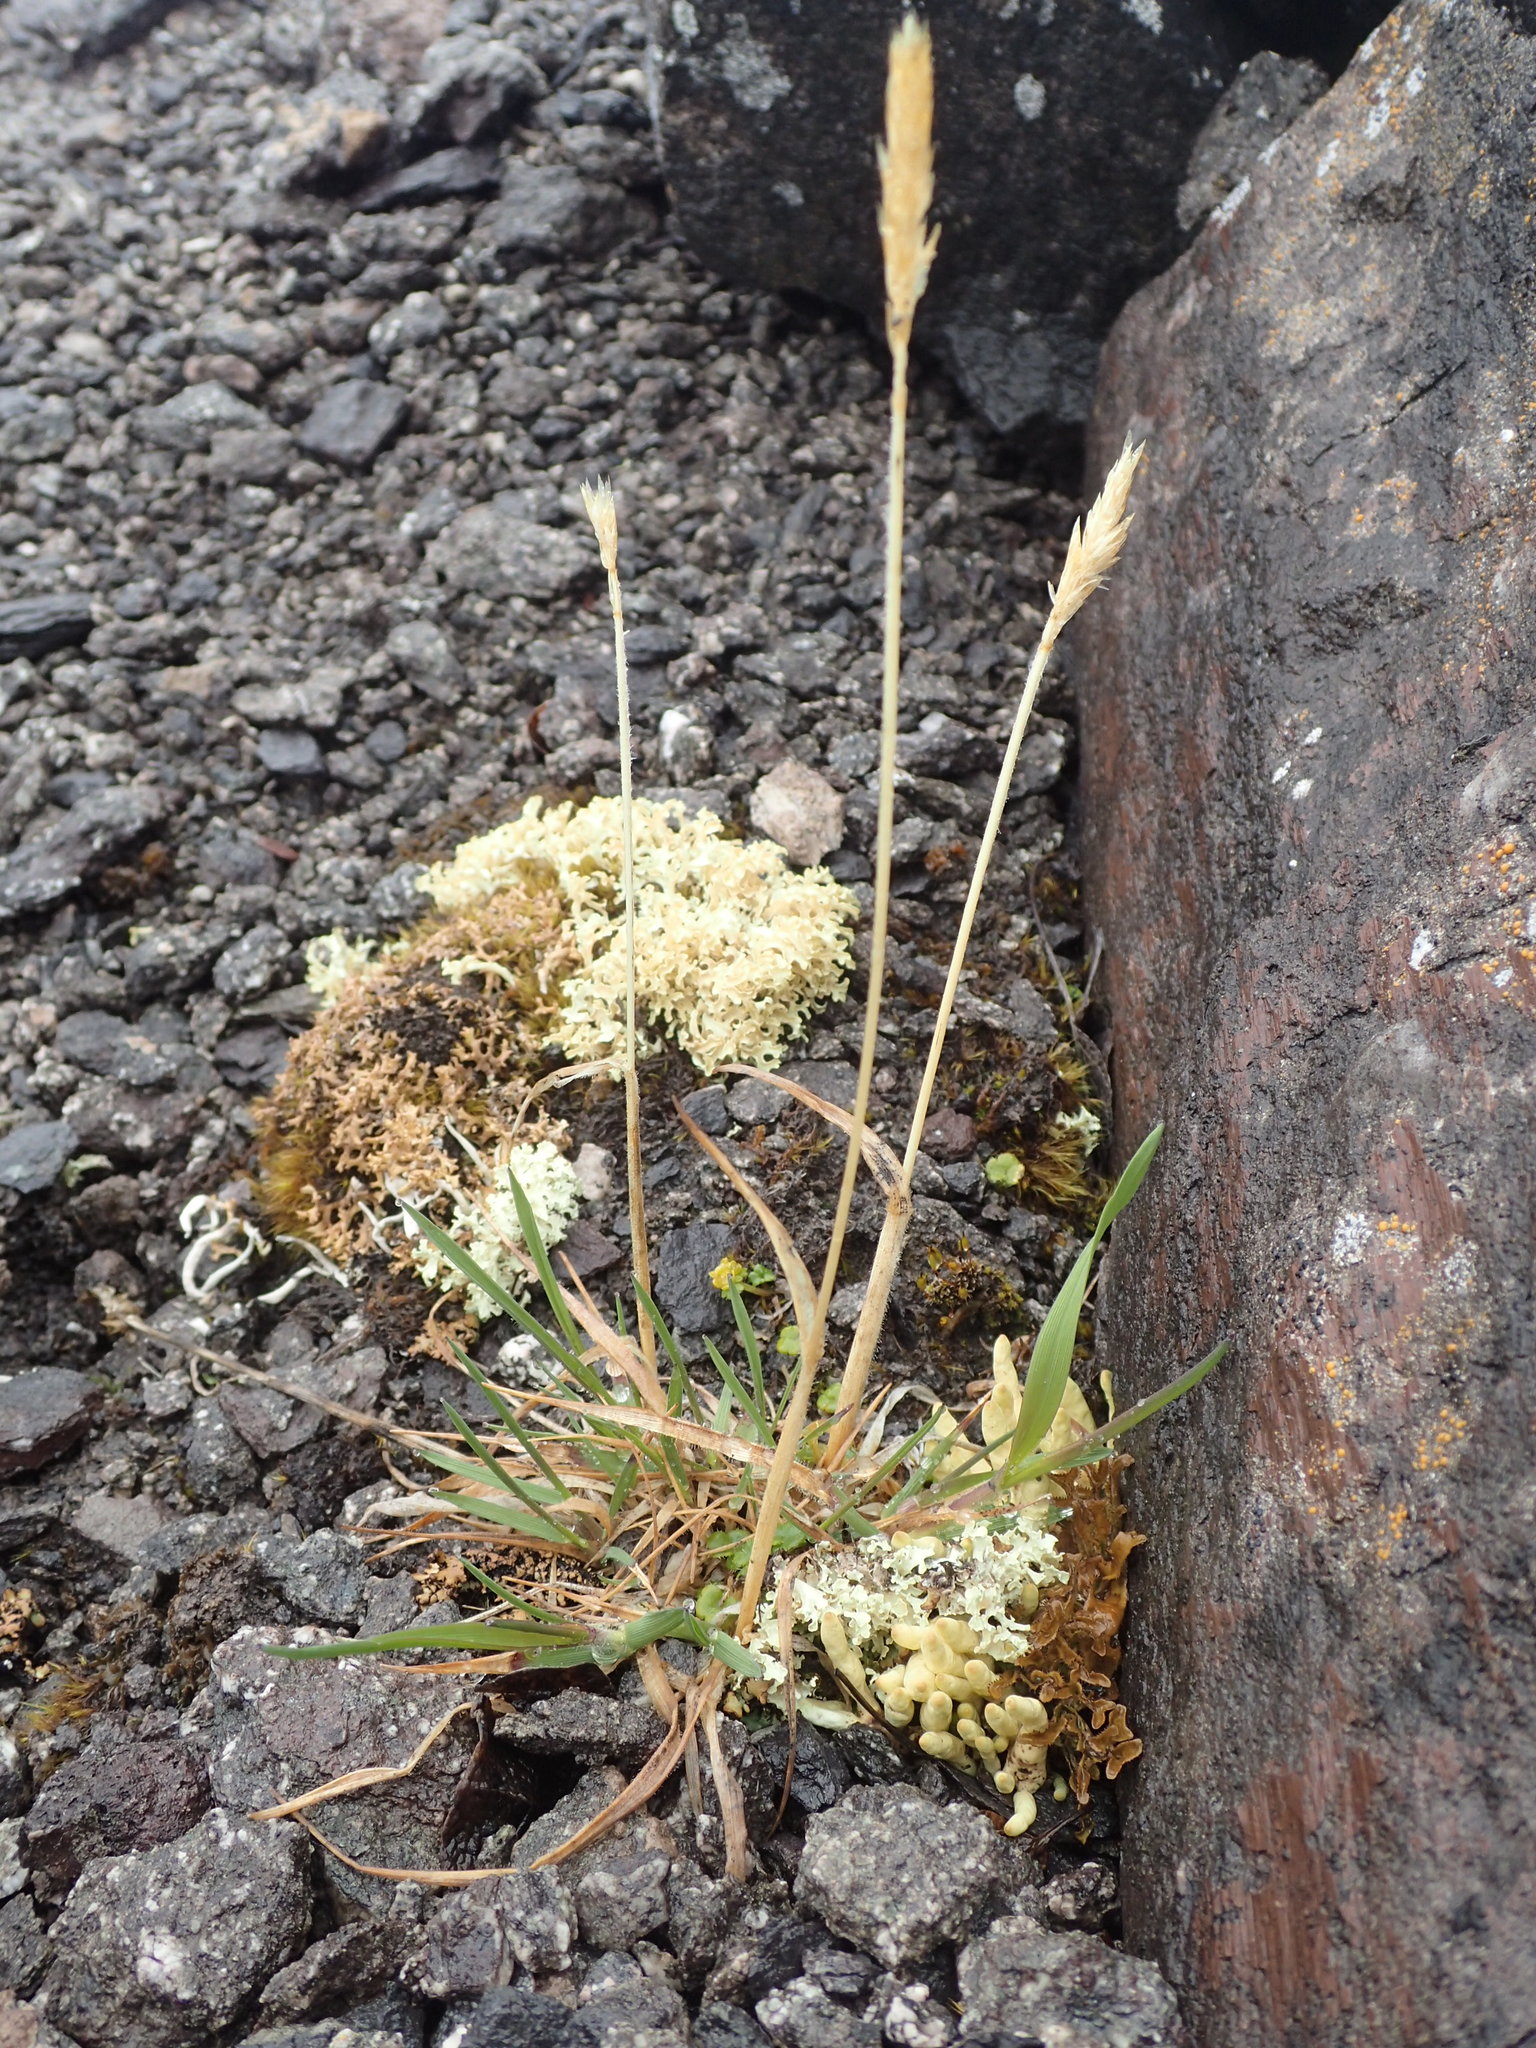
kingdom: Plantae
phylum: Tracheophyta
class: Liliopsida
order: Poales
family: Poaceae
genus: Koeleria
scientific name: Koeleria spicata
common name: Mountain trisetum
